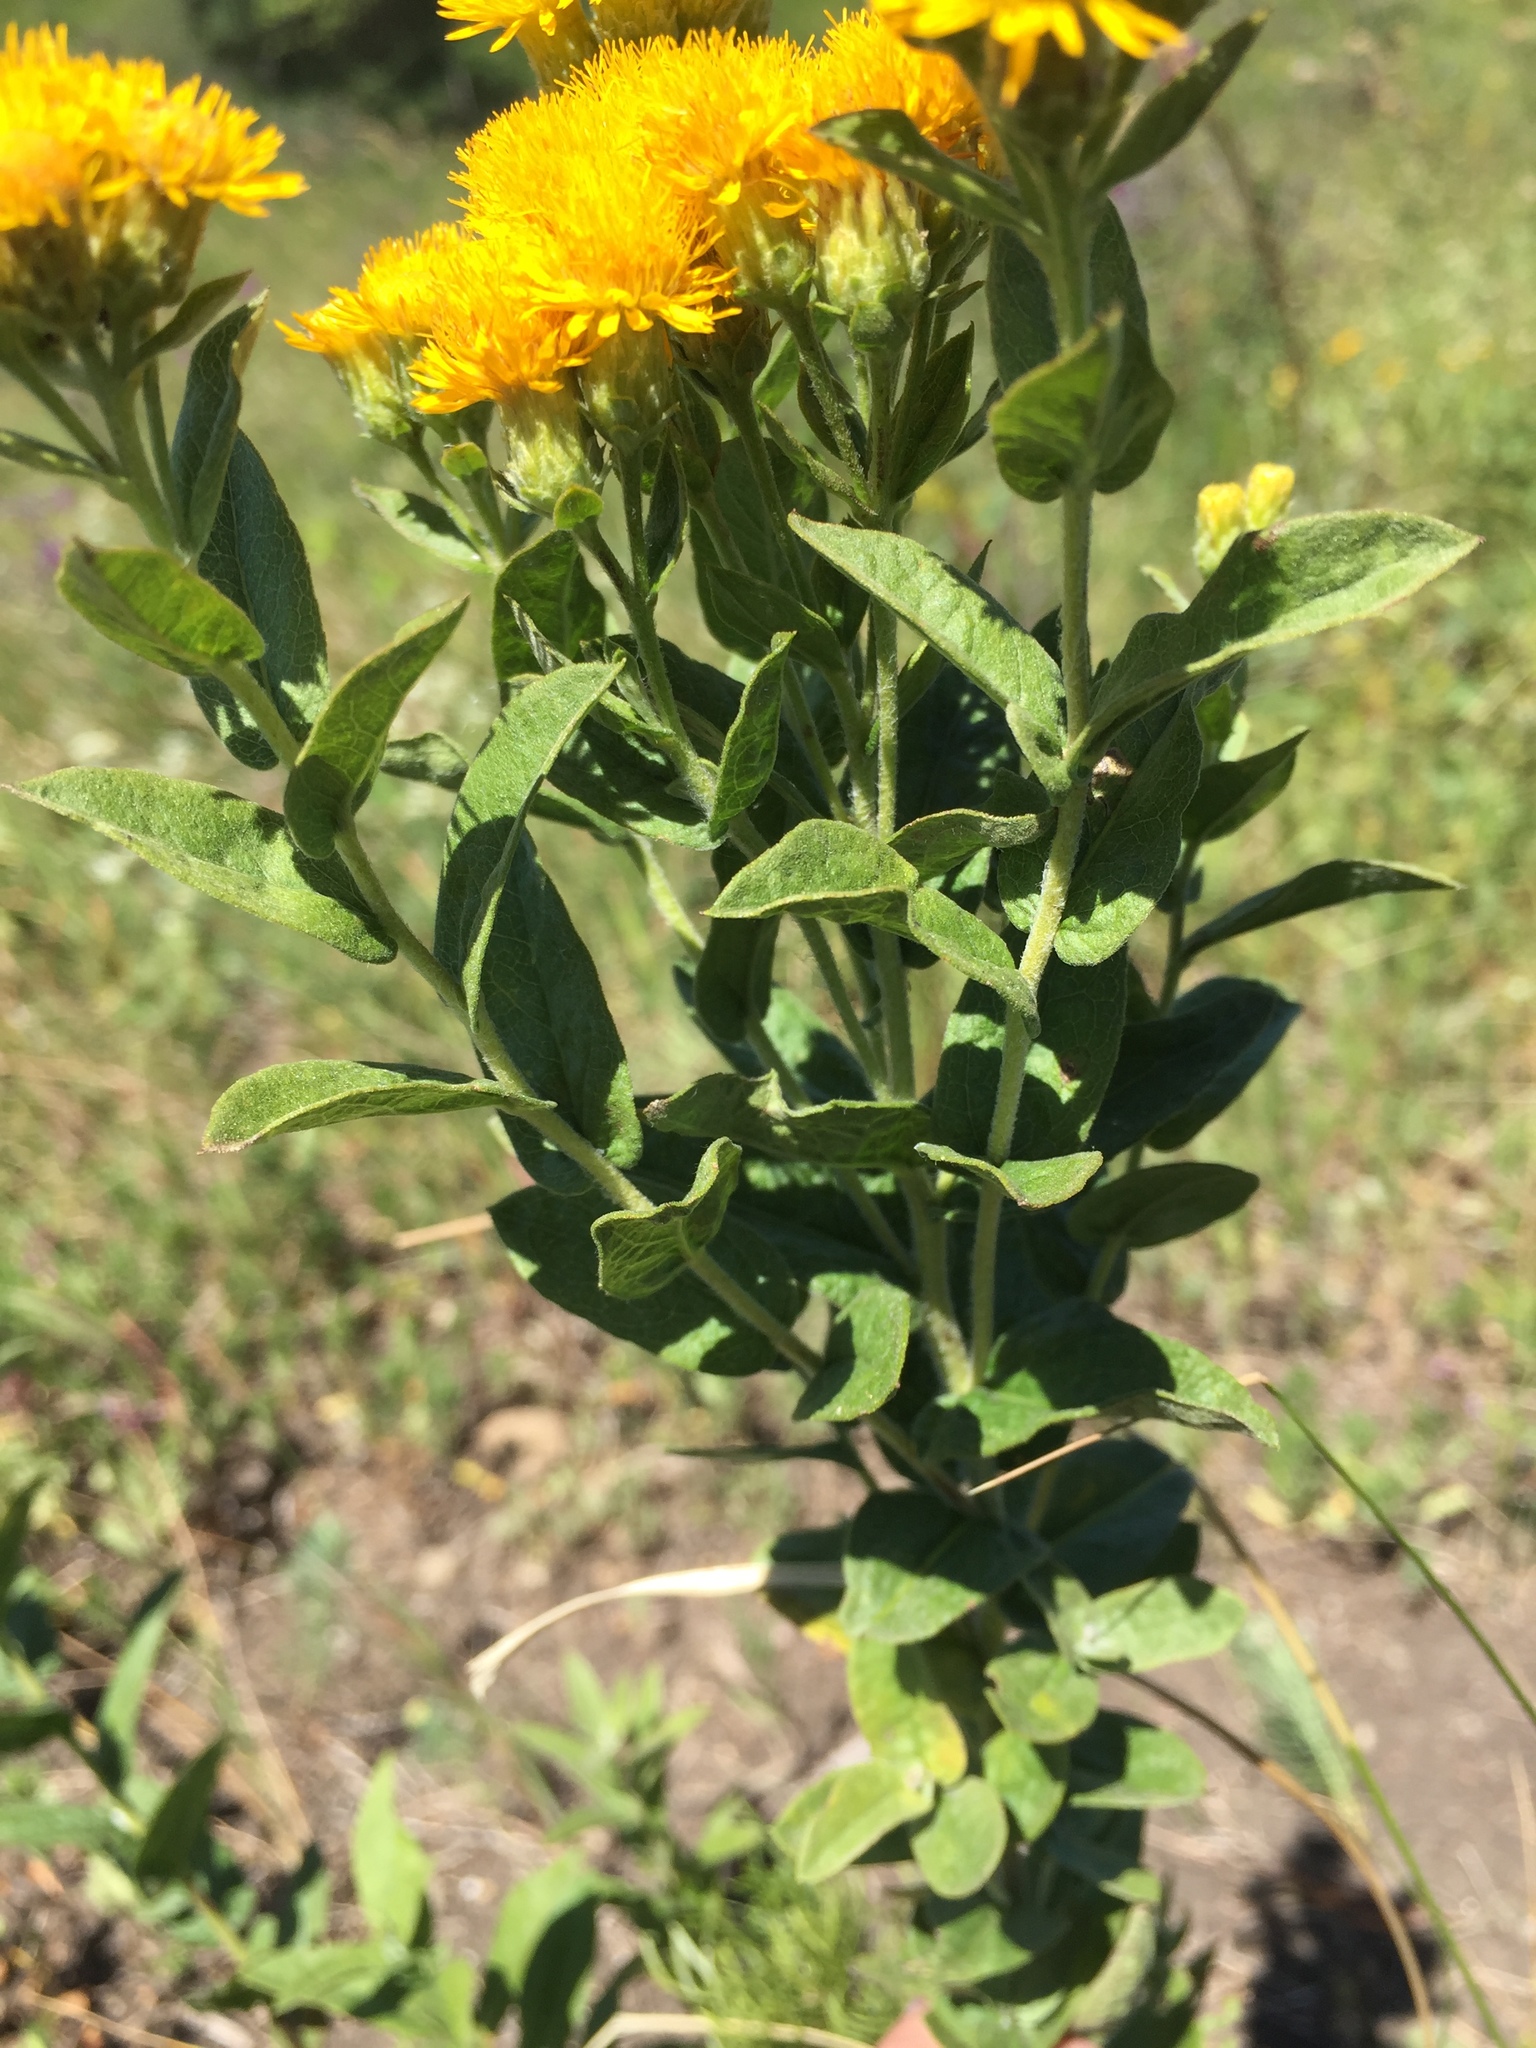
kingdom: Plantae
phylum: Tracheophyta
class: Magnoliopsida
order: Asterales
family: Asteraceae
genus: Pentanema
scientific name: Pentanema germanicum
